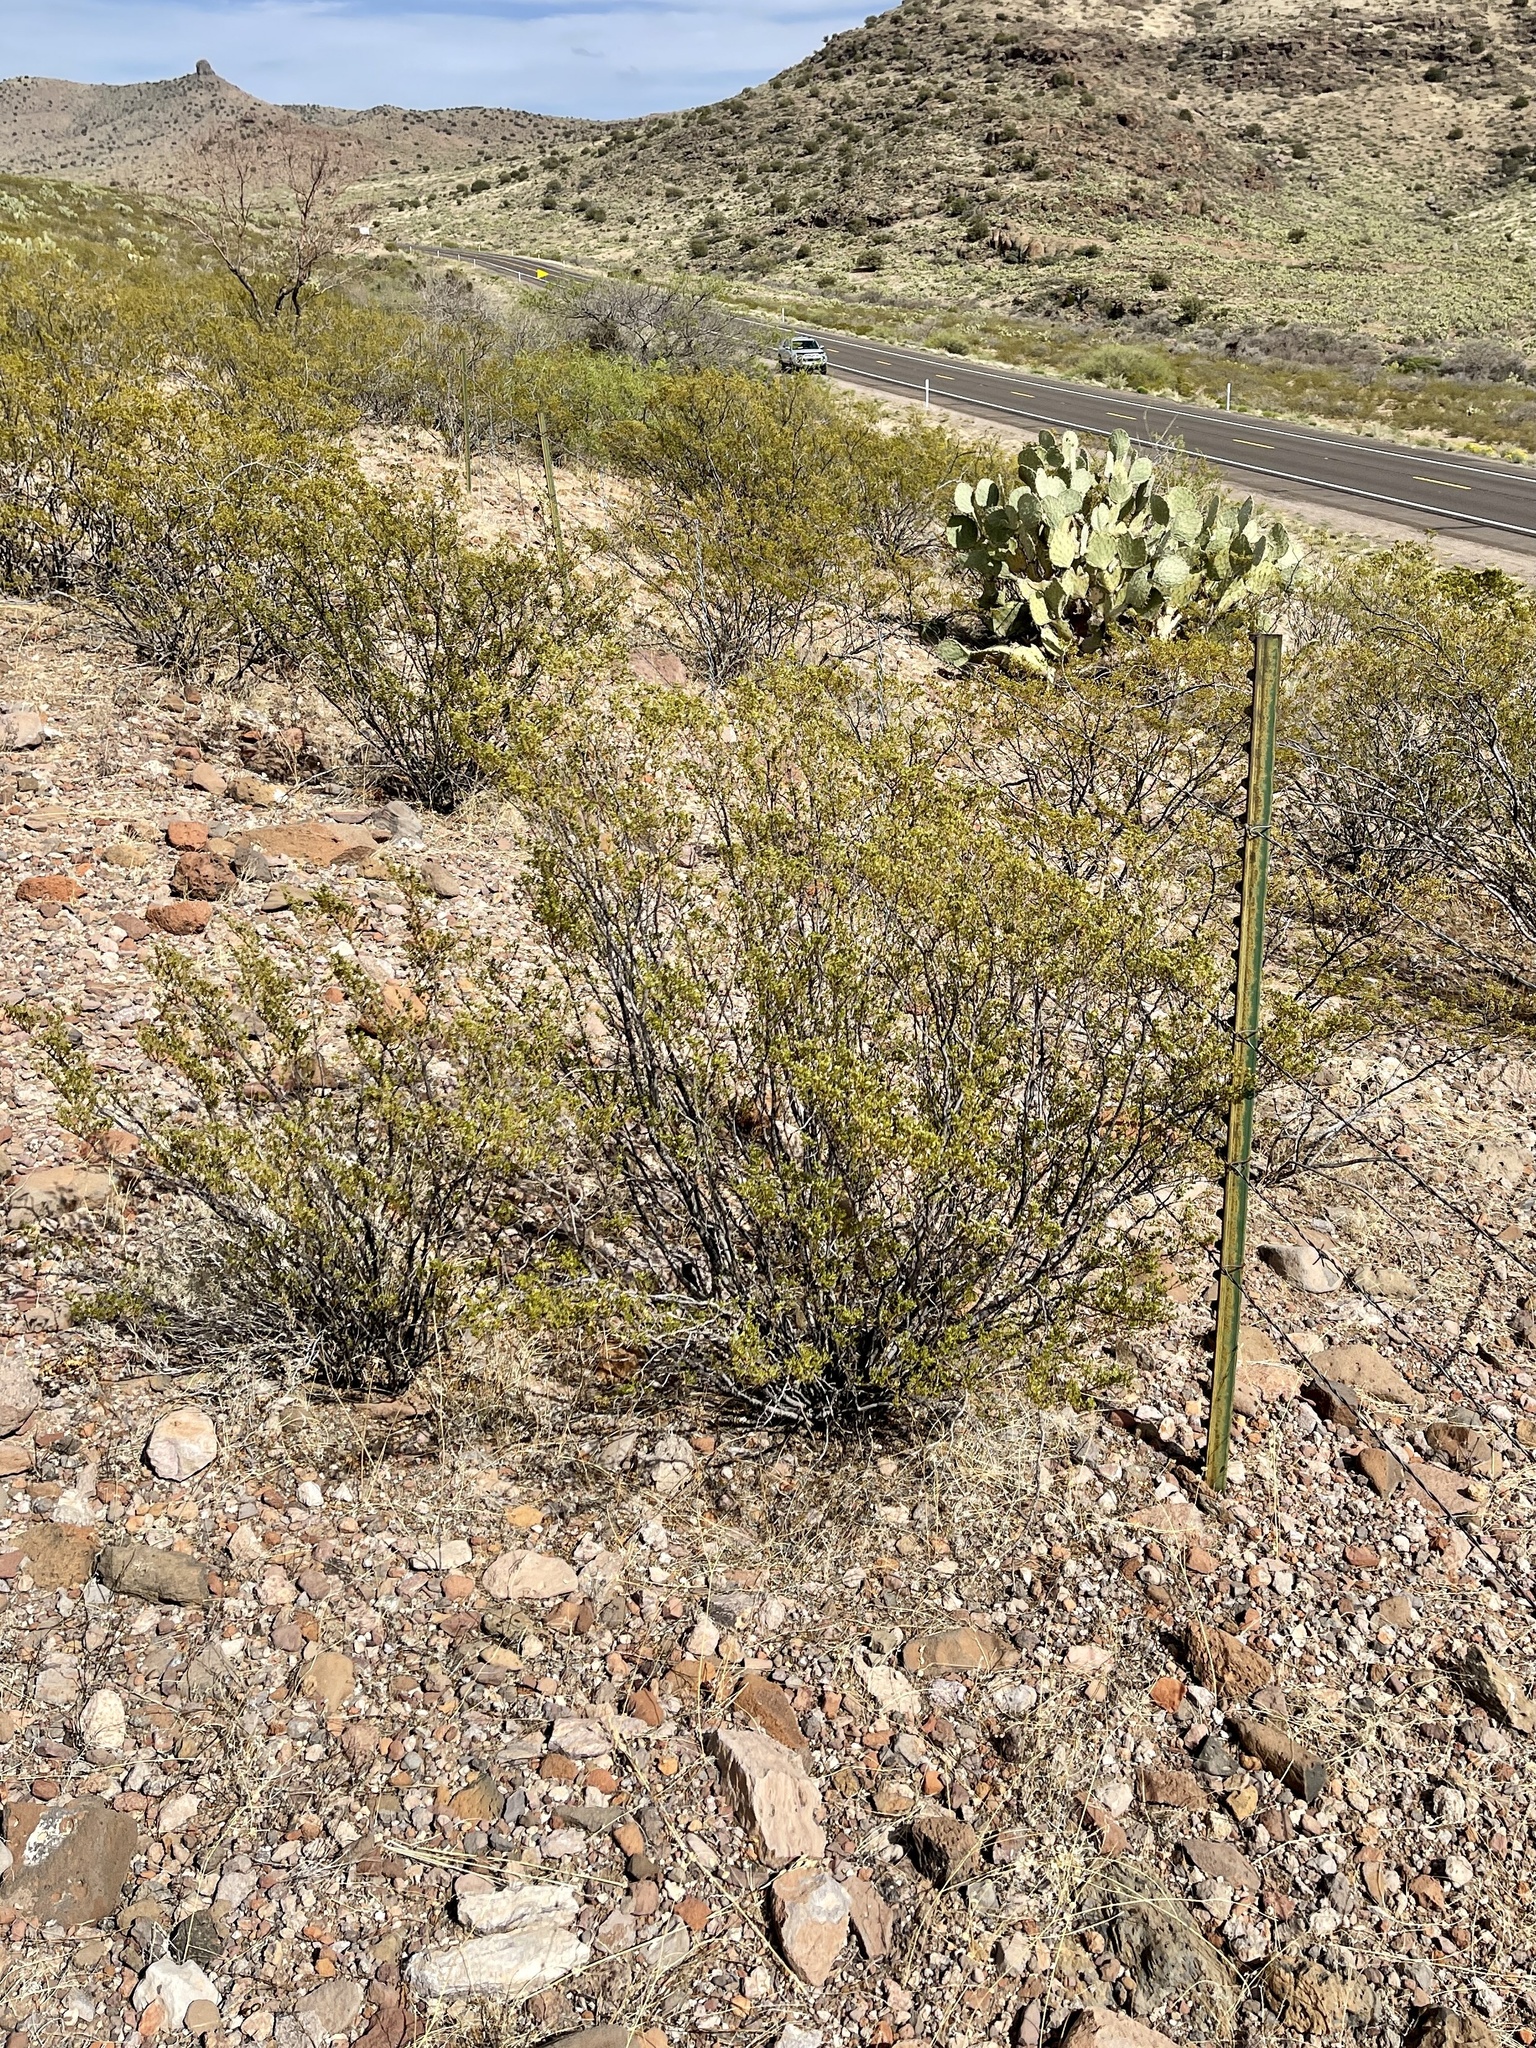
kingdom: Plantae
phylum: Tracheophyta
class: Magnoliopsida
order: Zygophyllales
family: Zygophyllaceae
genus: Larrea
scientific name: Larrea tridentata
